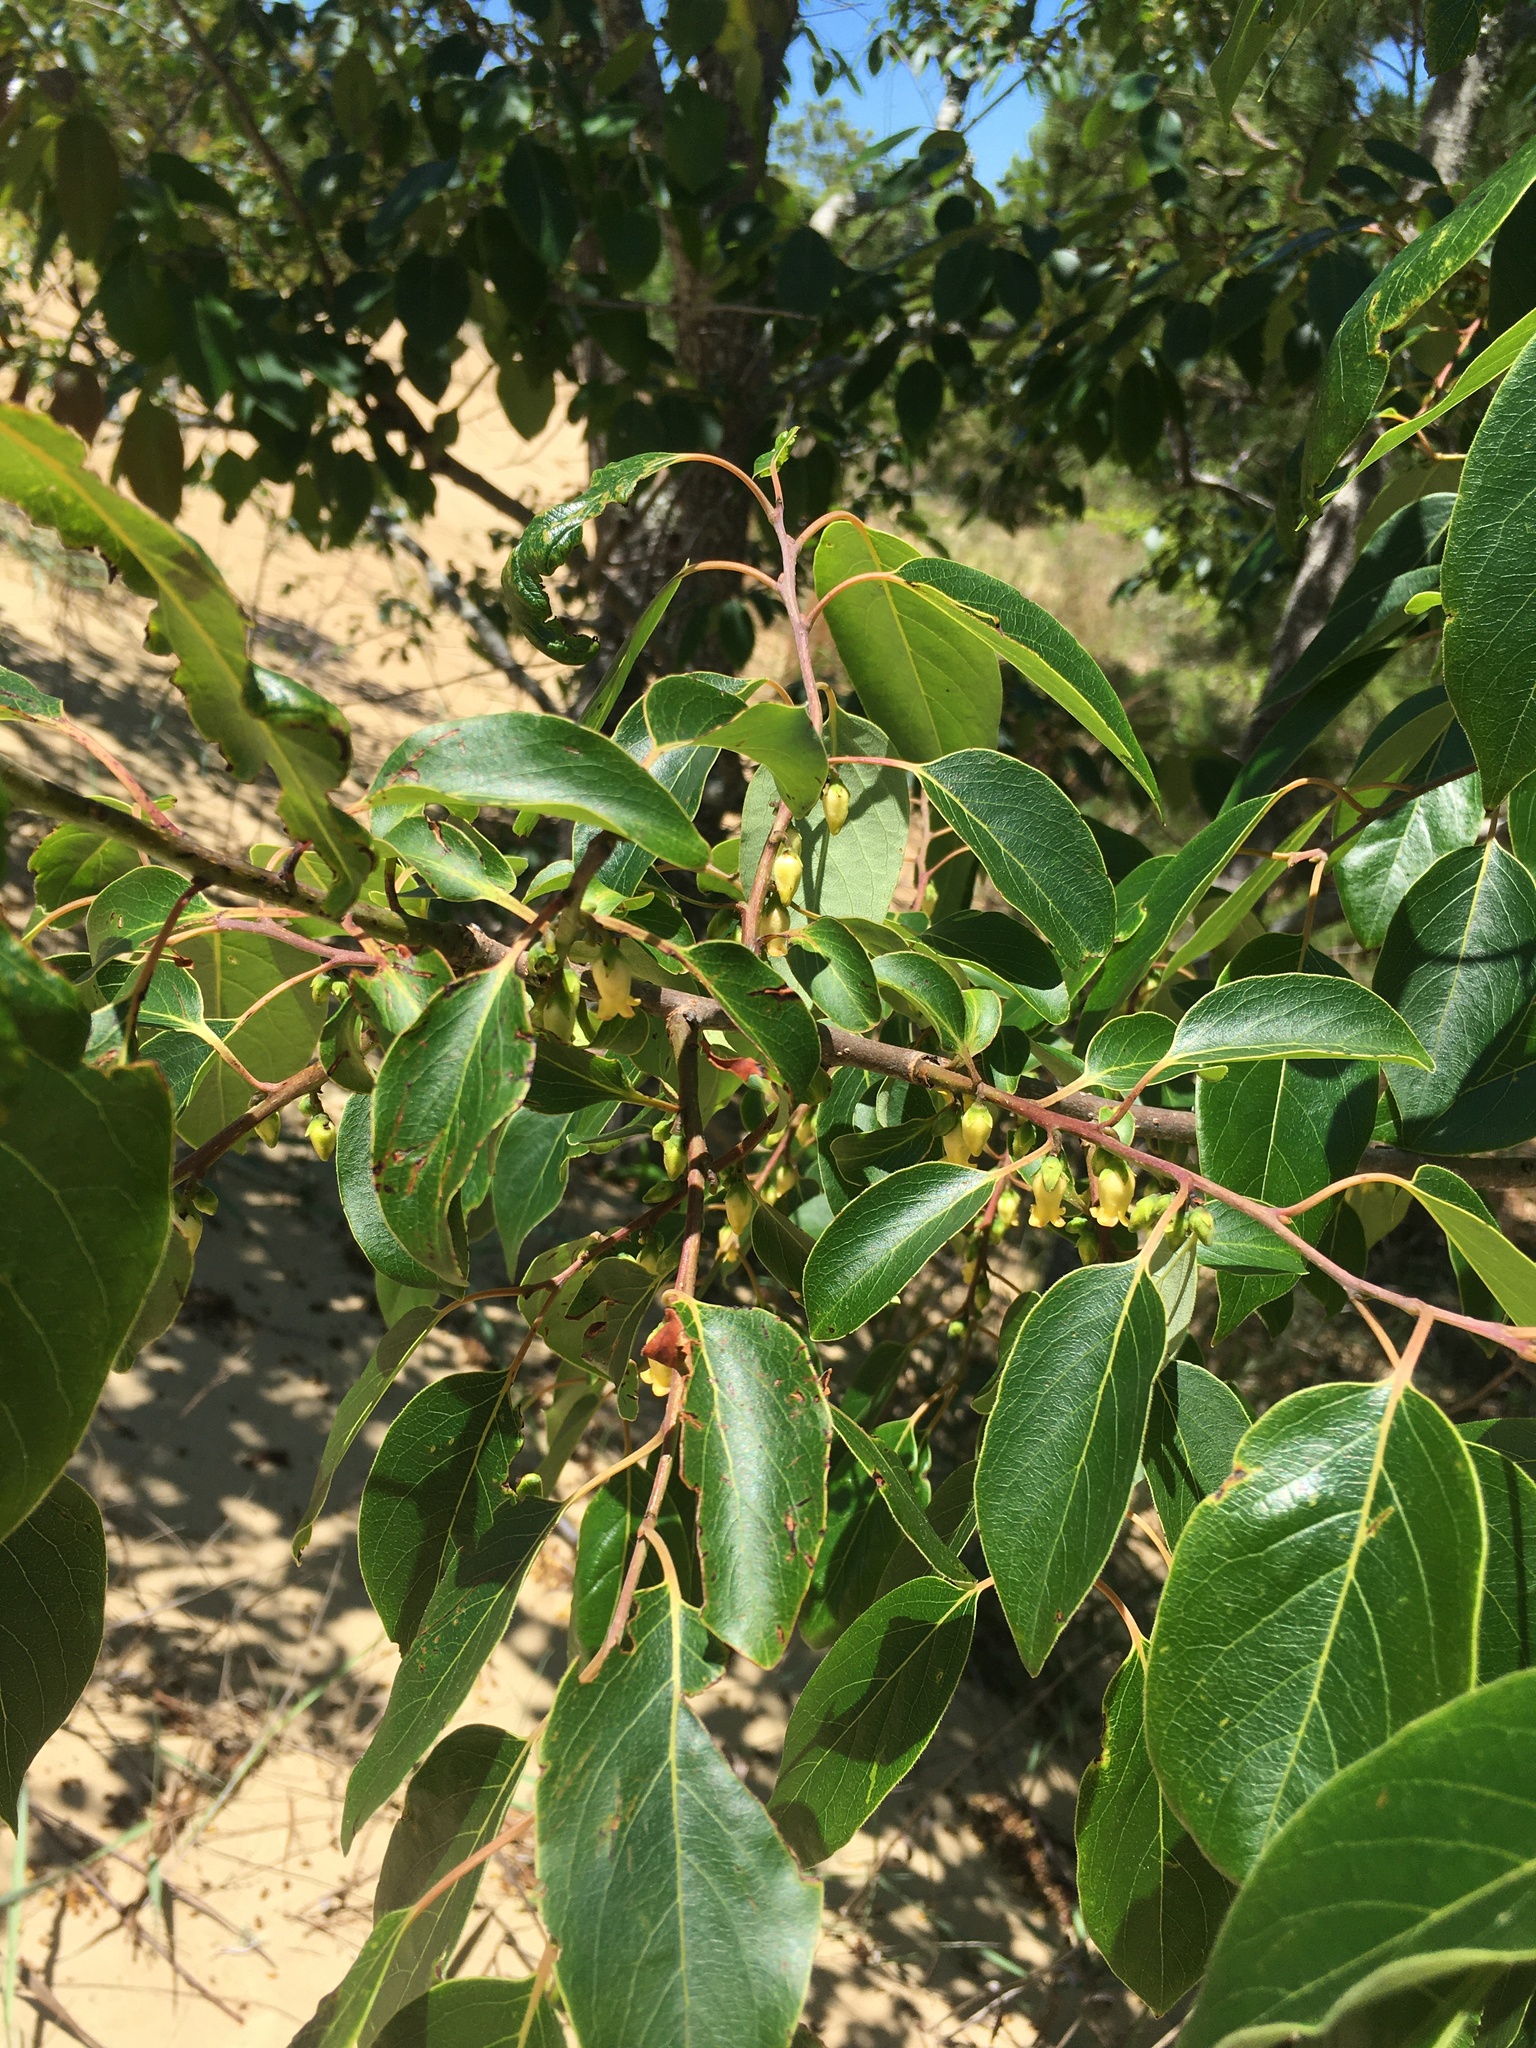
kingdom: Plantae
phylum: Tracheophyta
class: Magnoliopsida
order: Ericales
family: Ebenaceae
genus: Diospyros
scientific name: Diospyros virginiana
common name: Persimmon
